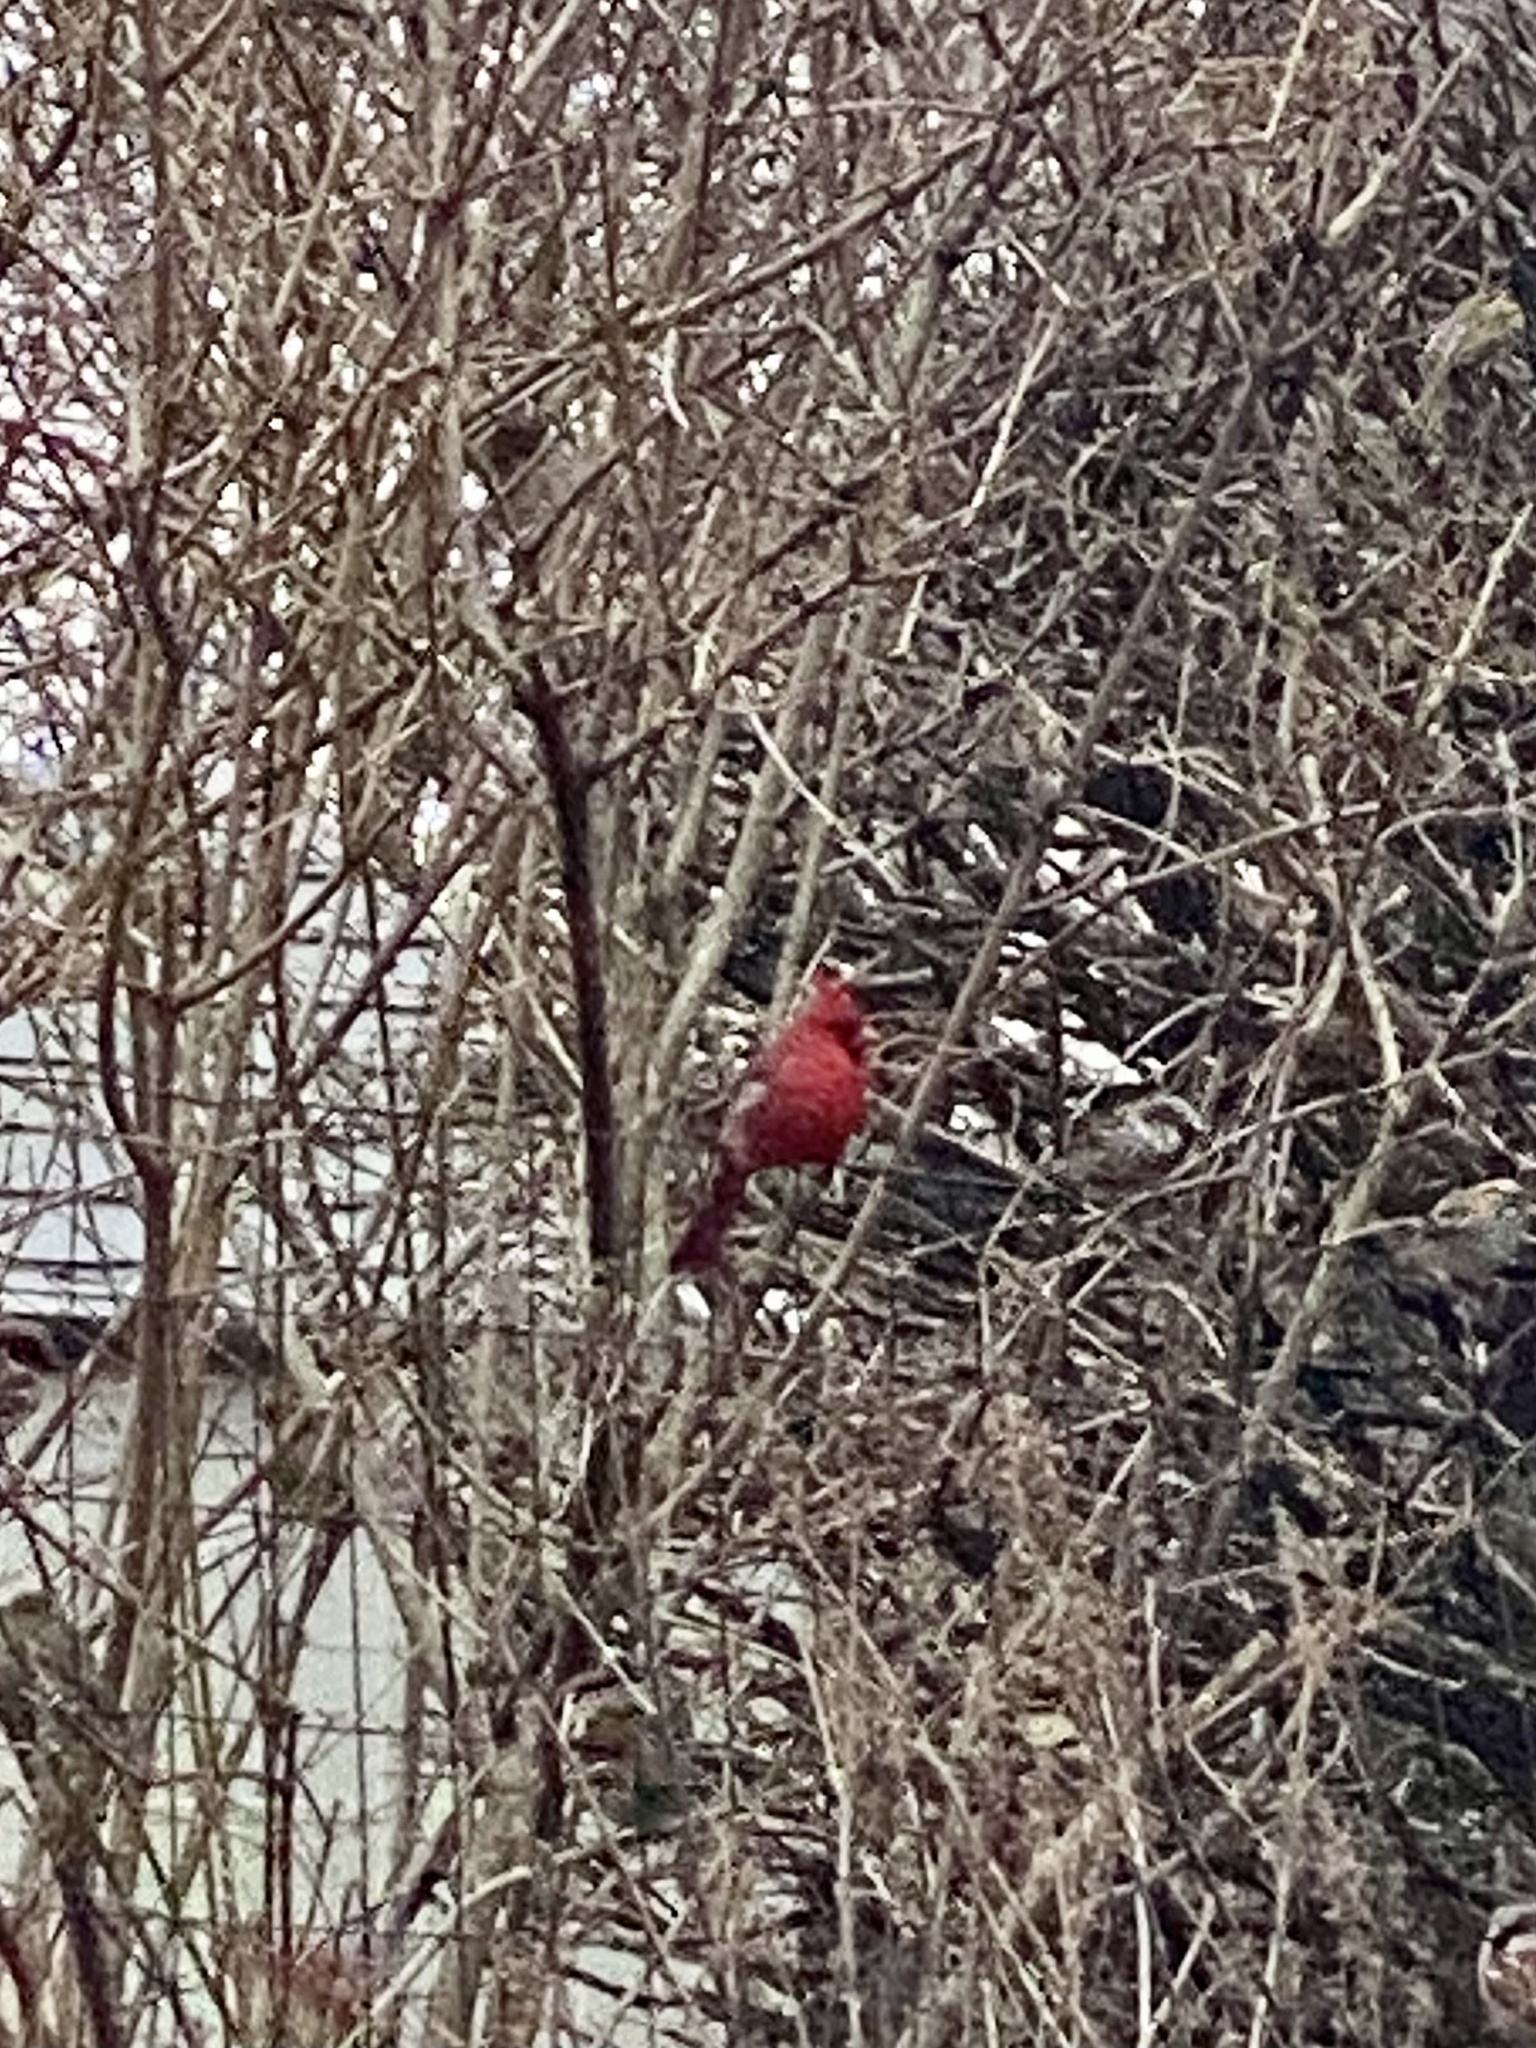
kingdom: Animalia
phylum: Chordata
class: Aves
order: Passeriformes
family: Cardinalidae
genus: Cardinalis
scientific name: Cardinalis cardinalis
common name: Northern cardinal
